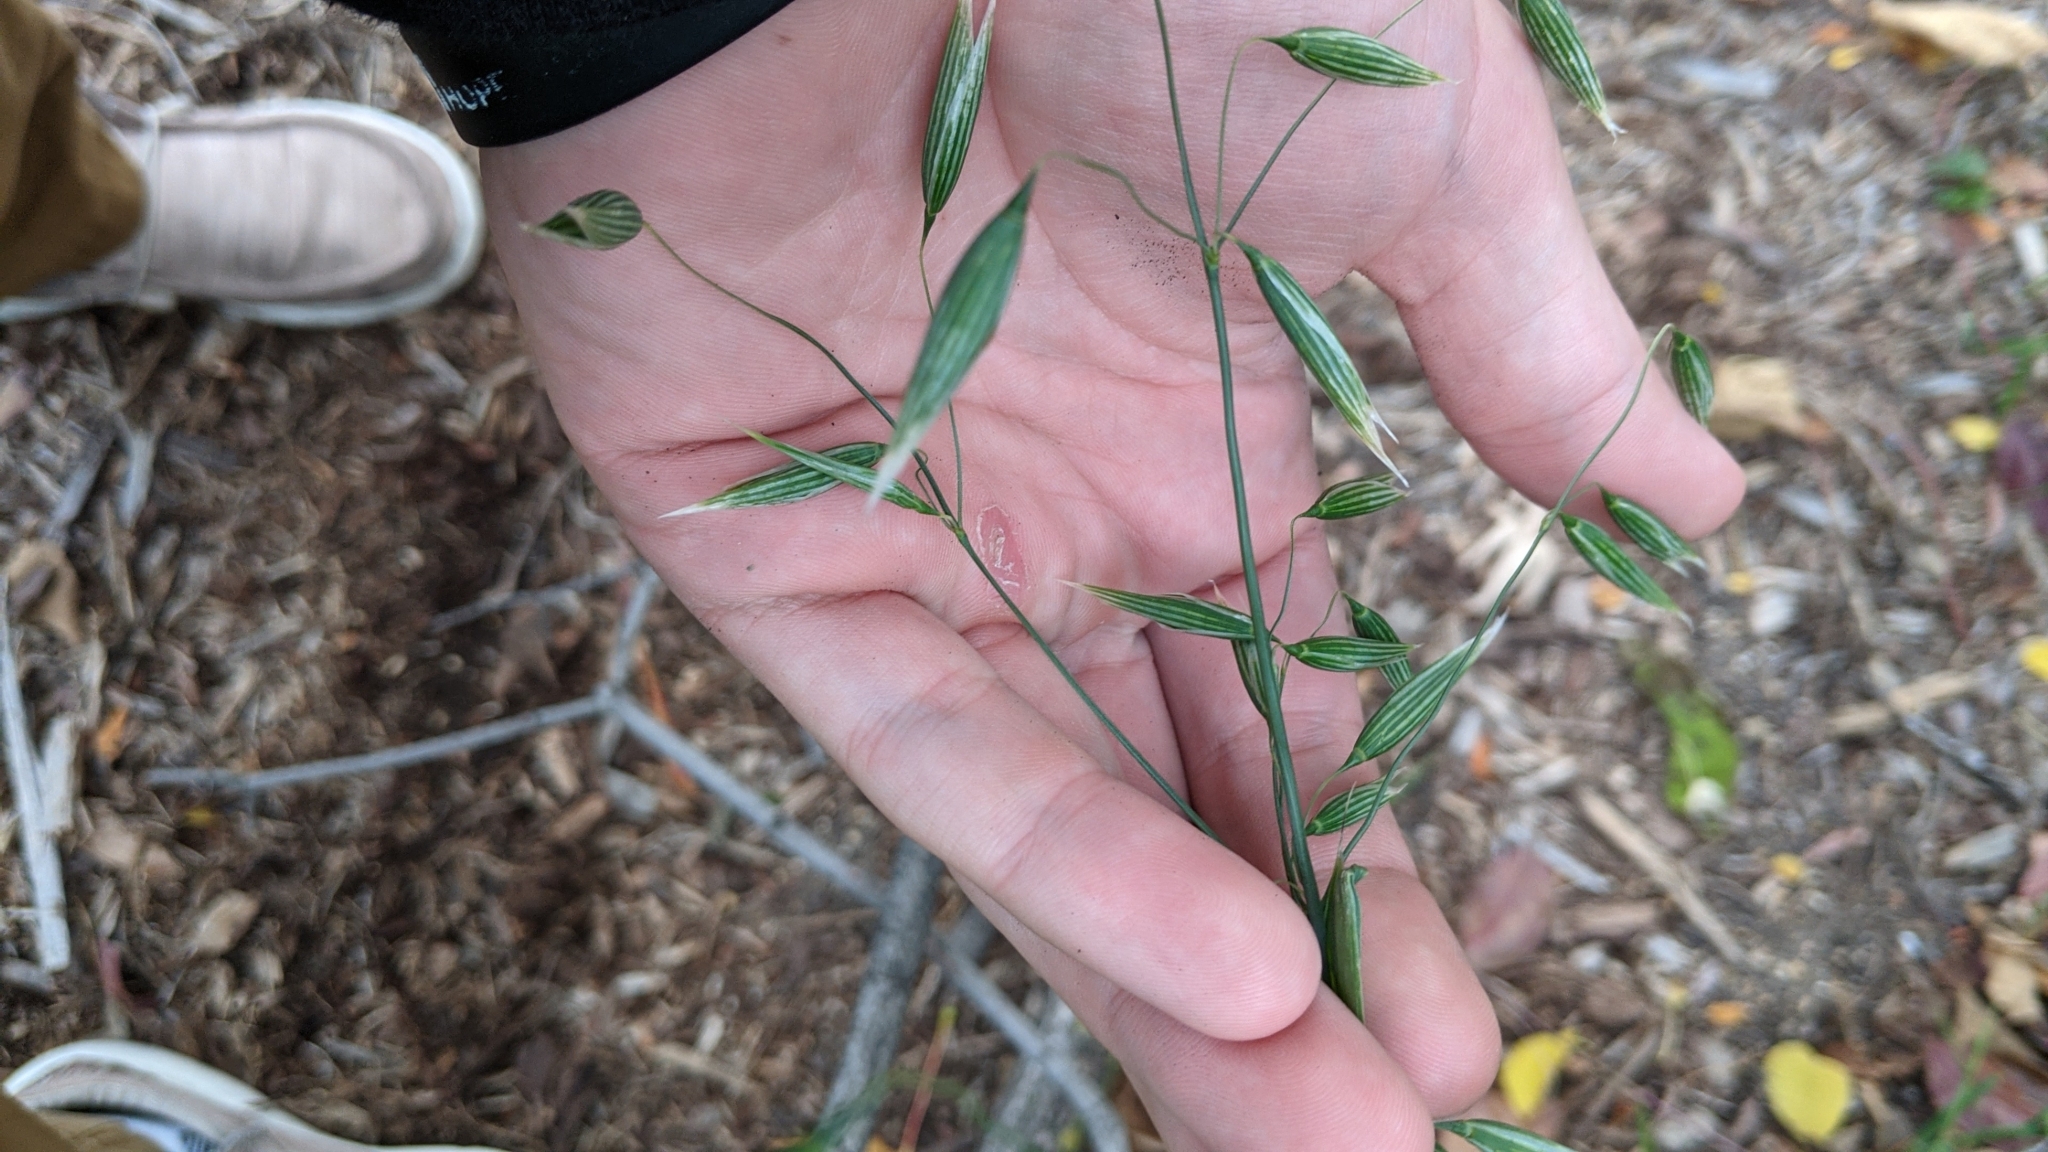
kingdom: Plantae
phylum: Tracheophyta
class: Liliopsida
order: Poales
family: Poaceae
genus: Avena
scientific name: Avena sativa
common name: Oat
